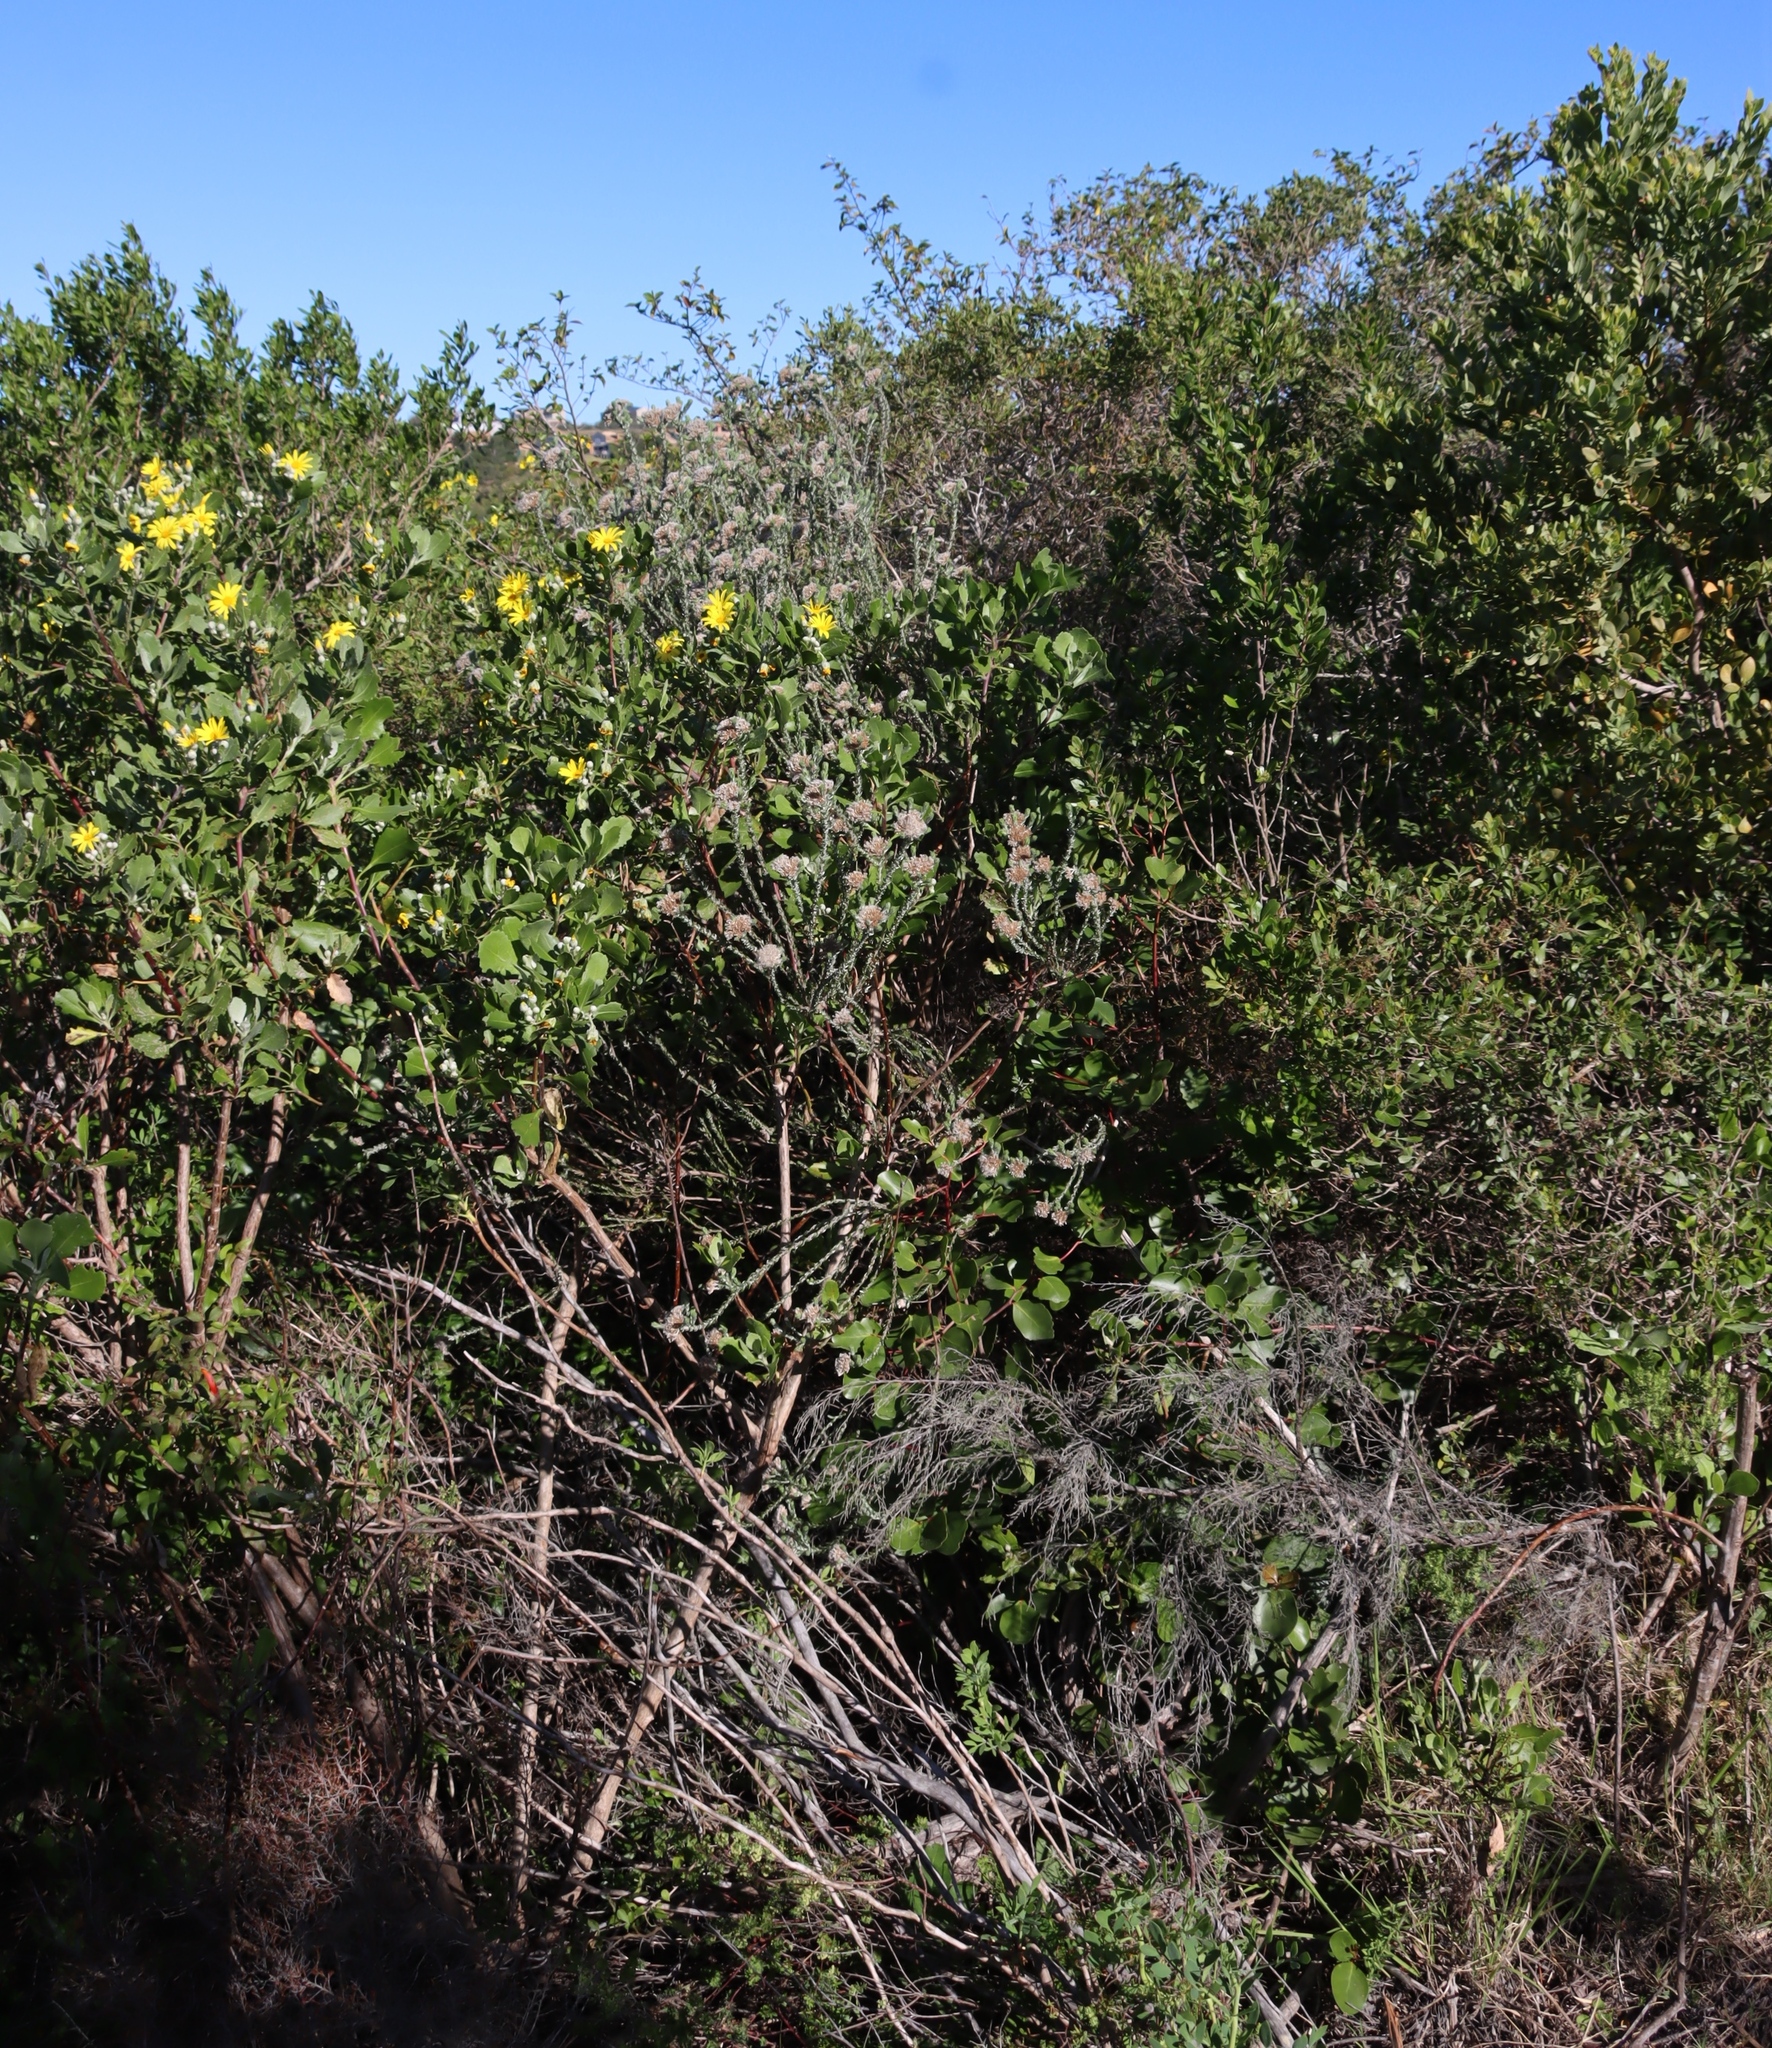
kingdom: Plantae
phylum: Tracheophyta
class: Magnoliopsida
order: Asterales
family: Asteraceae
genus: Metalasia
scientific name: Metalasia pungens
